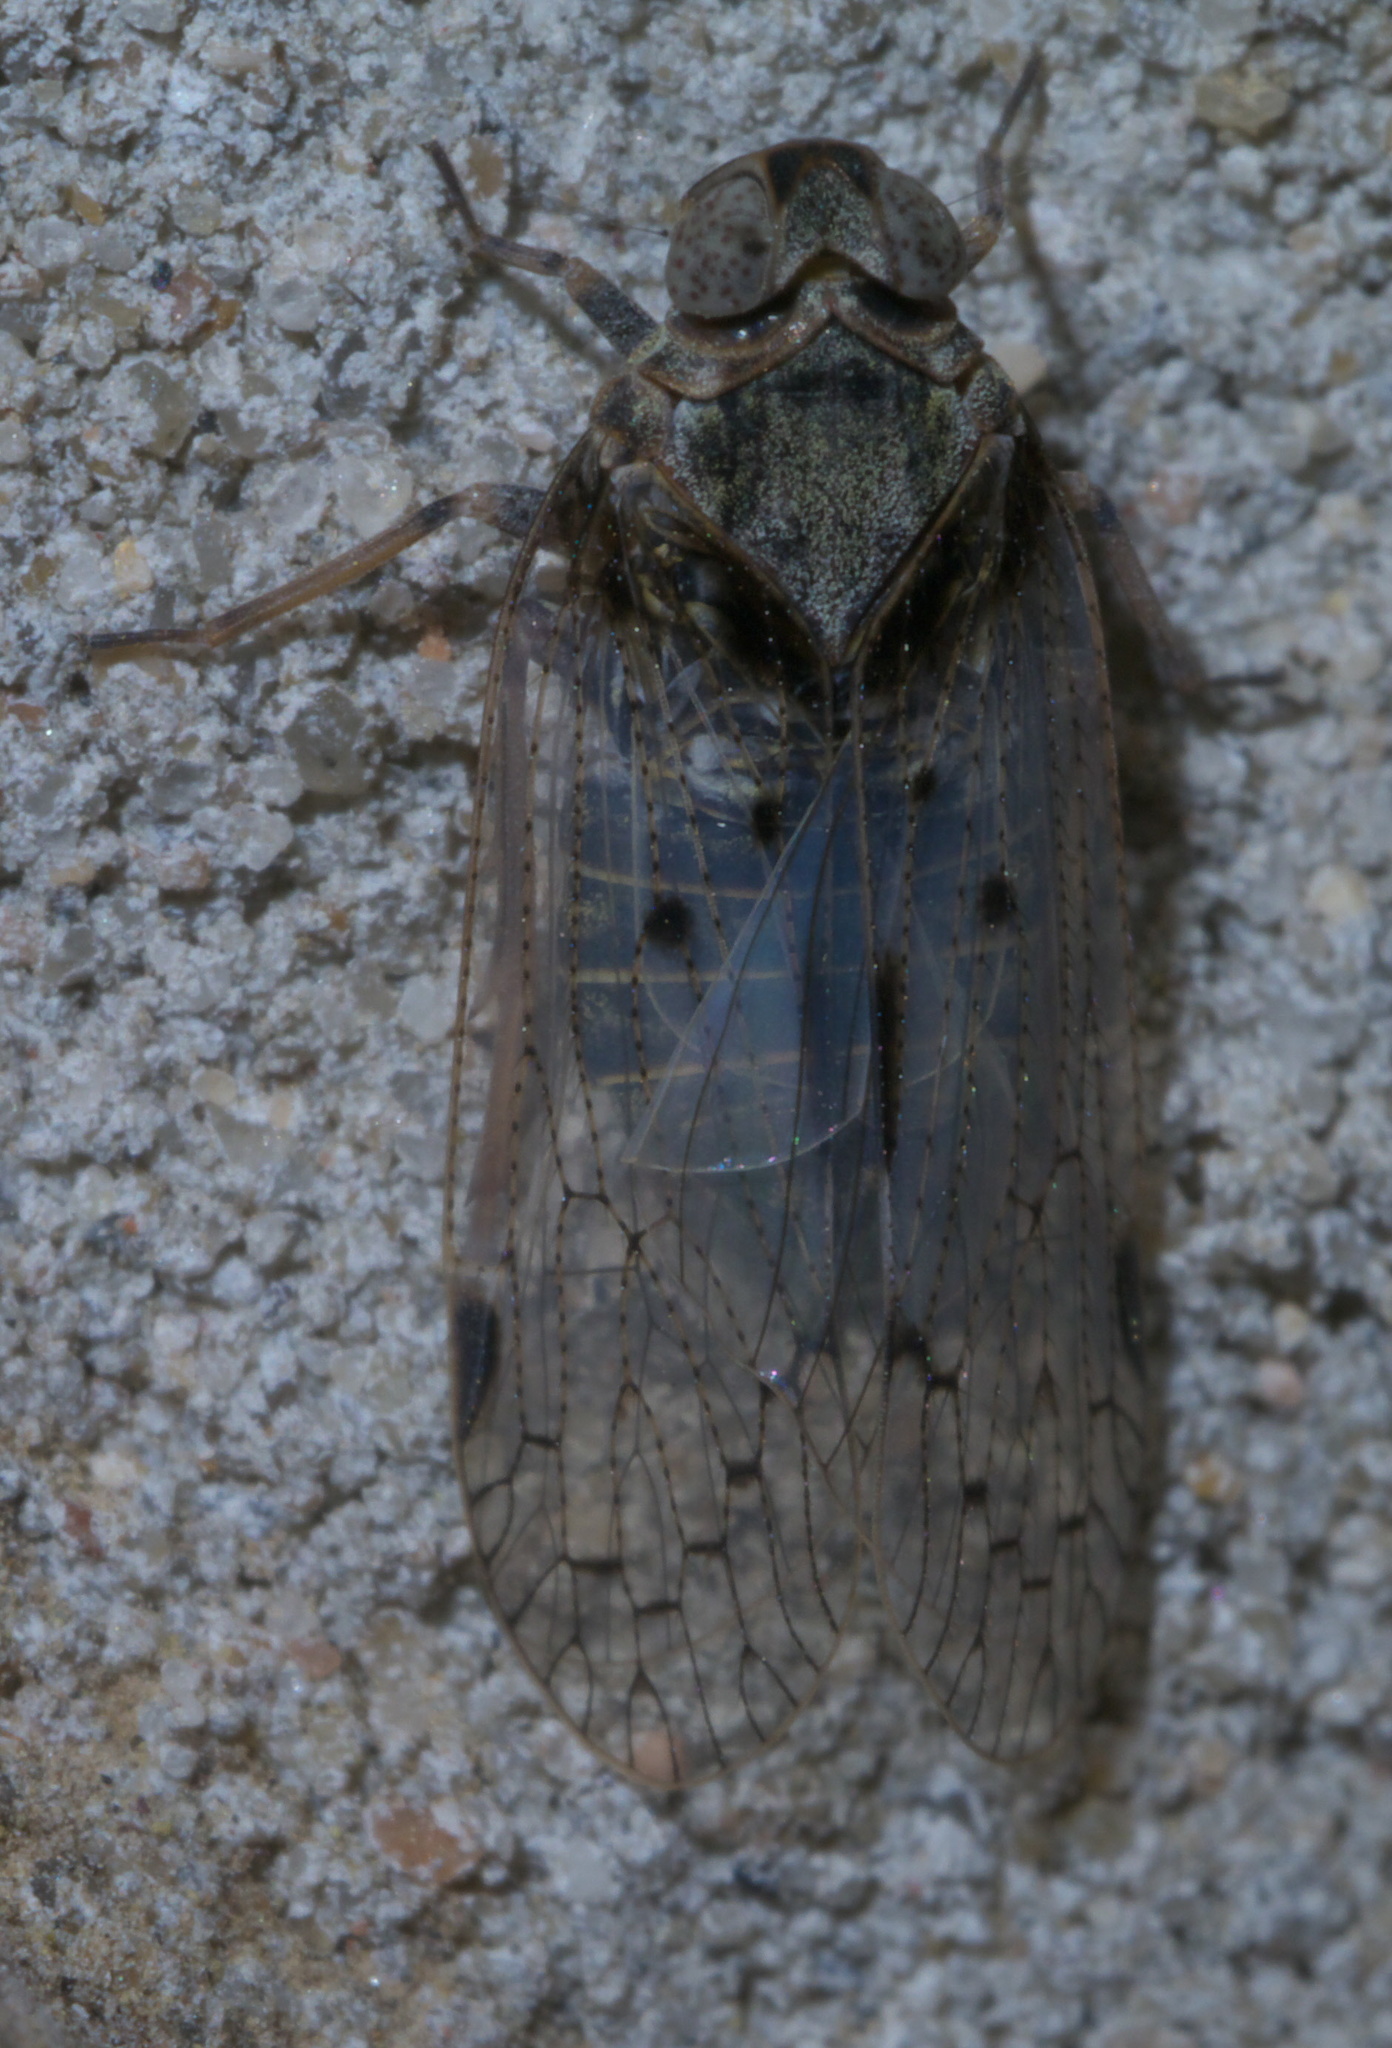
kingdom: Animalia
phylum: Arthropoda
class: Insecta
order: Hemiptera
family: Cixiidae
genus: Melanoliarus
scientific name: Melanoliarus aridus
